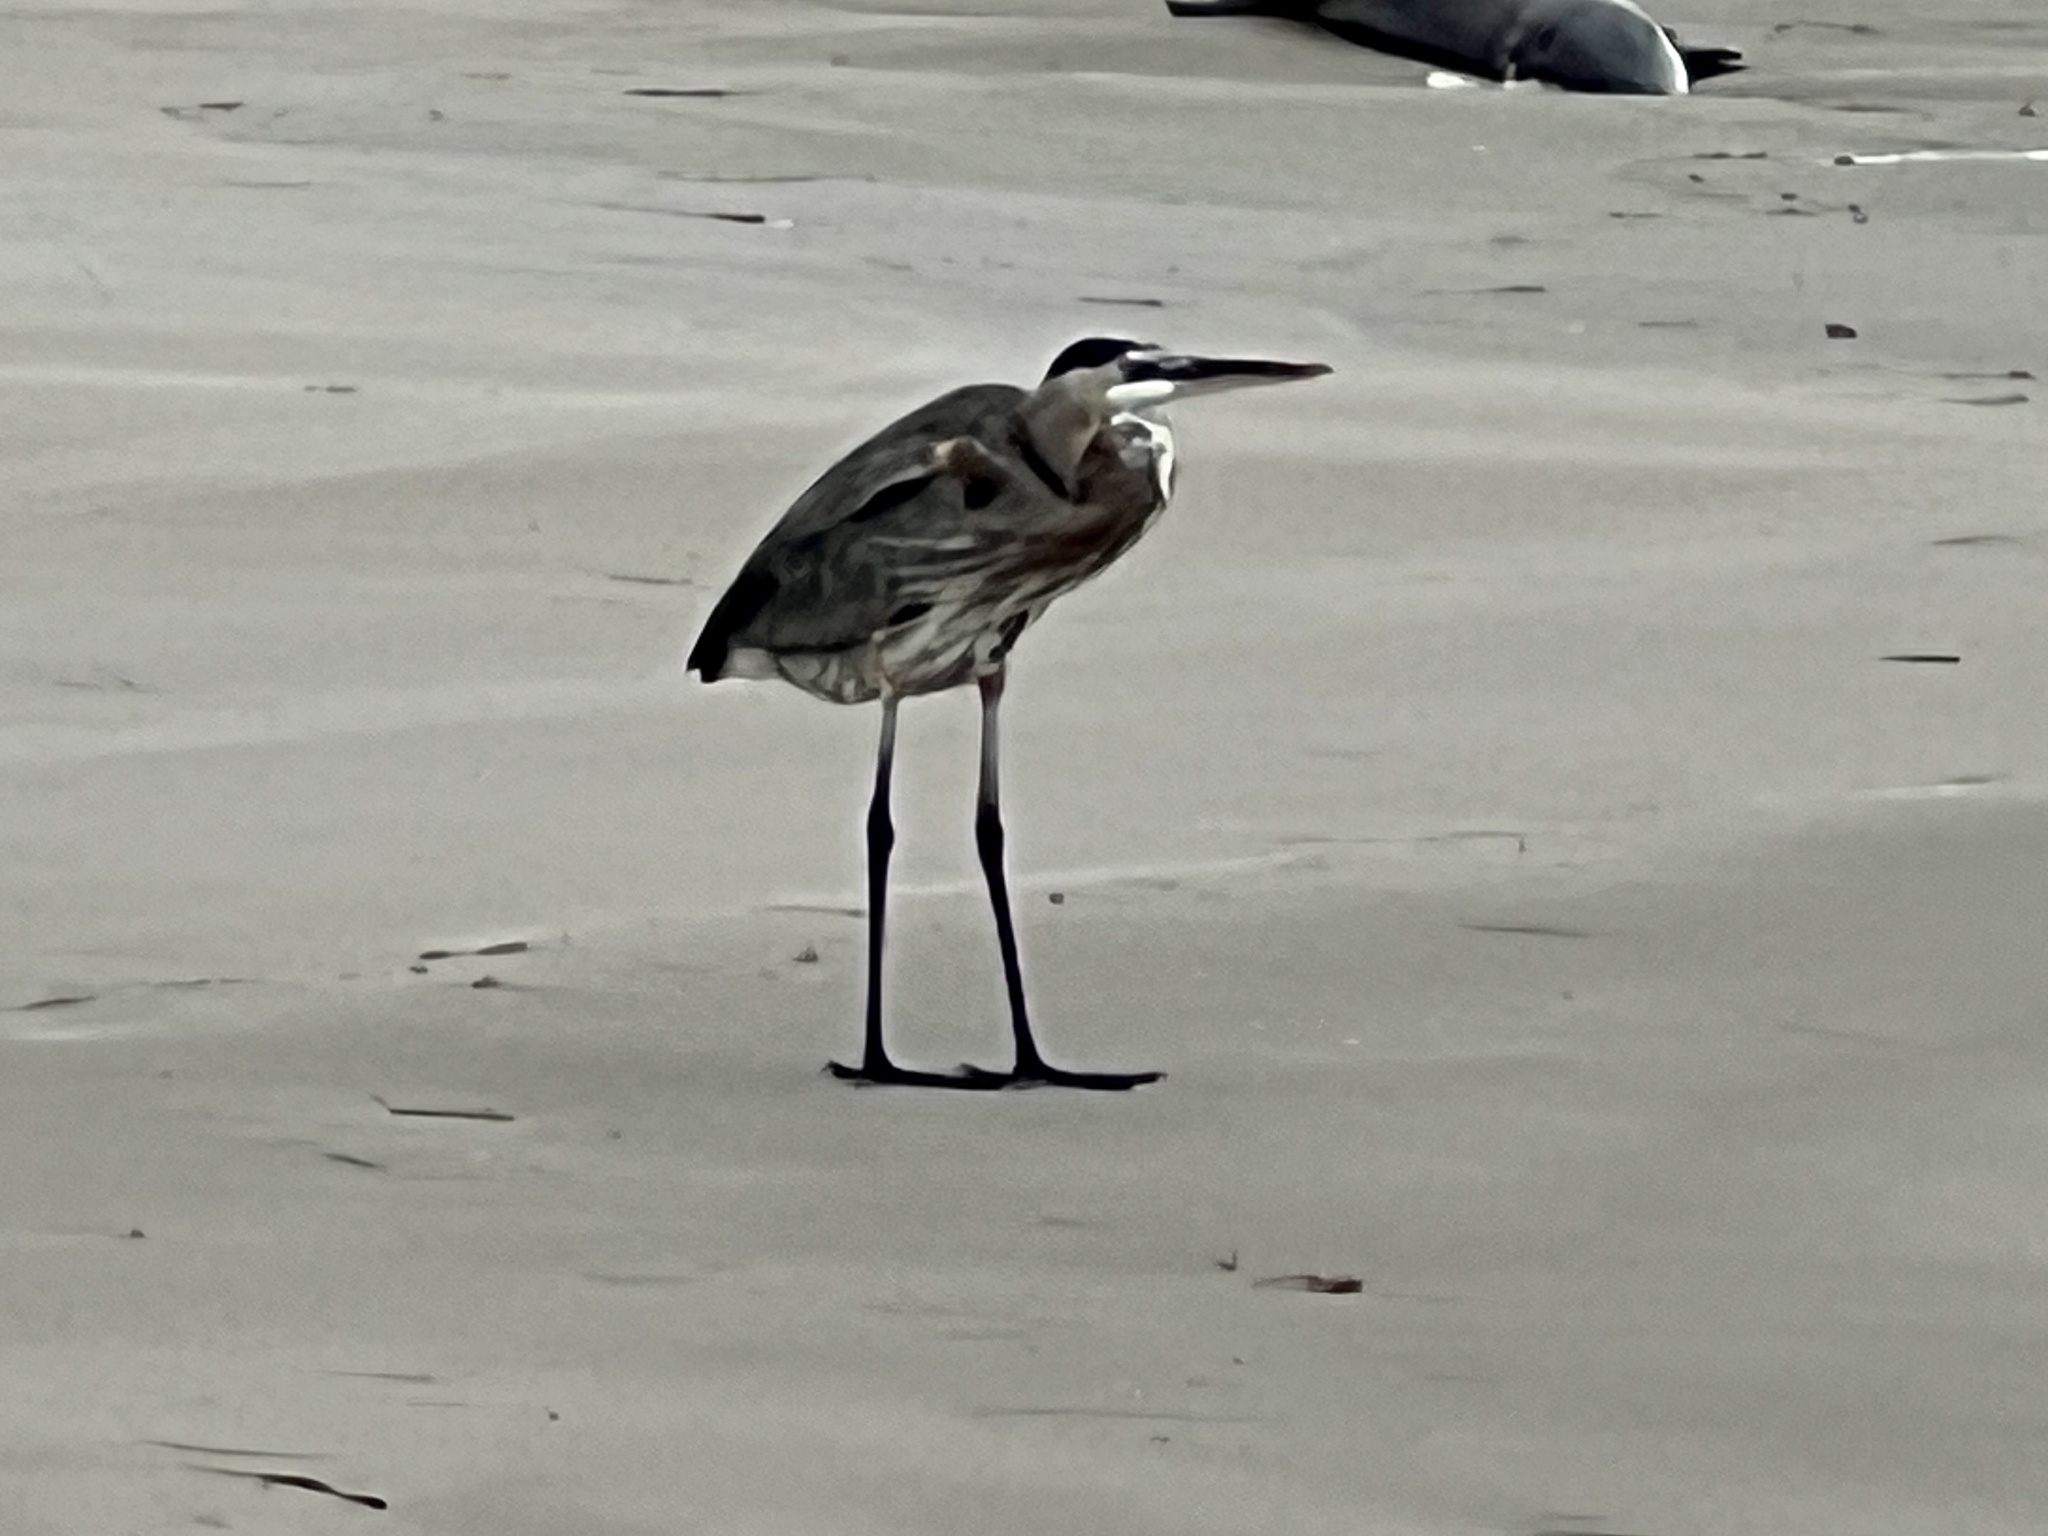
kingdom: Animalia
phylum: Chordata
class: Aves
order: Pelecaniformes
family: Ardeidae
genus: Ardea
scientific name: Ardea herodias
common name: Great blue heron
